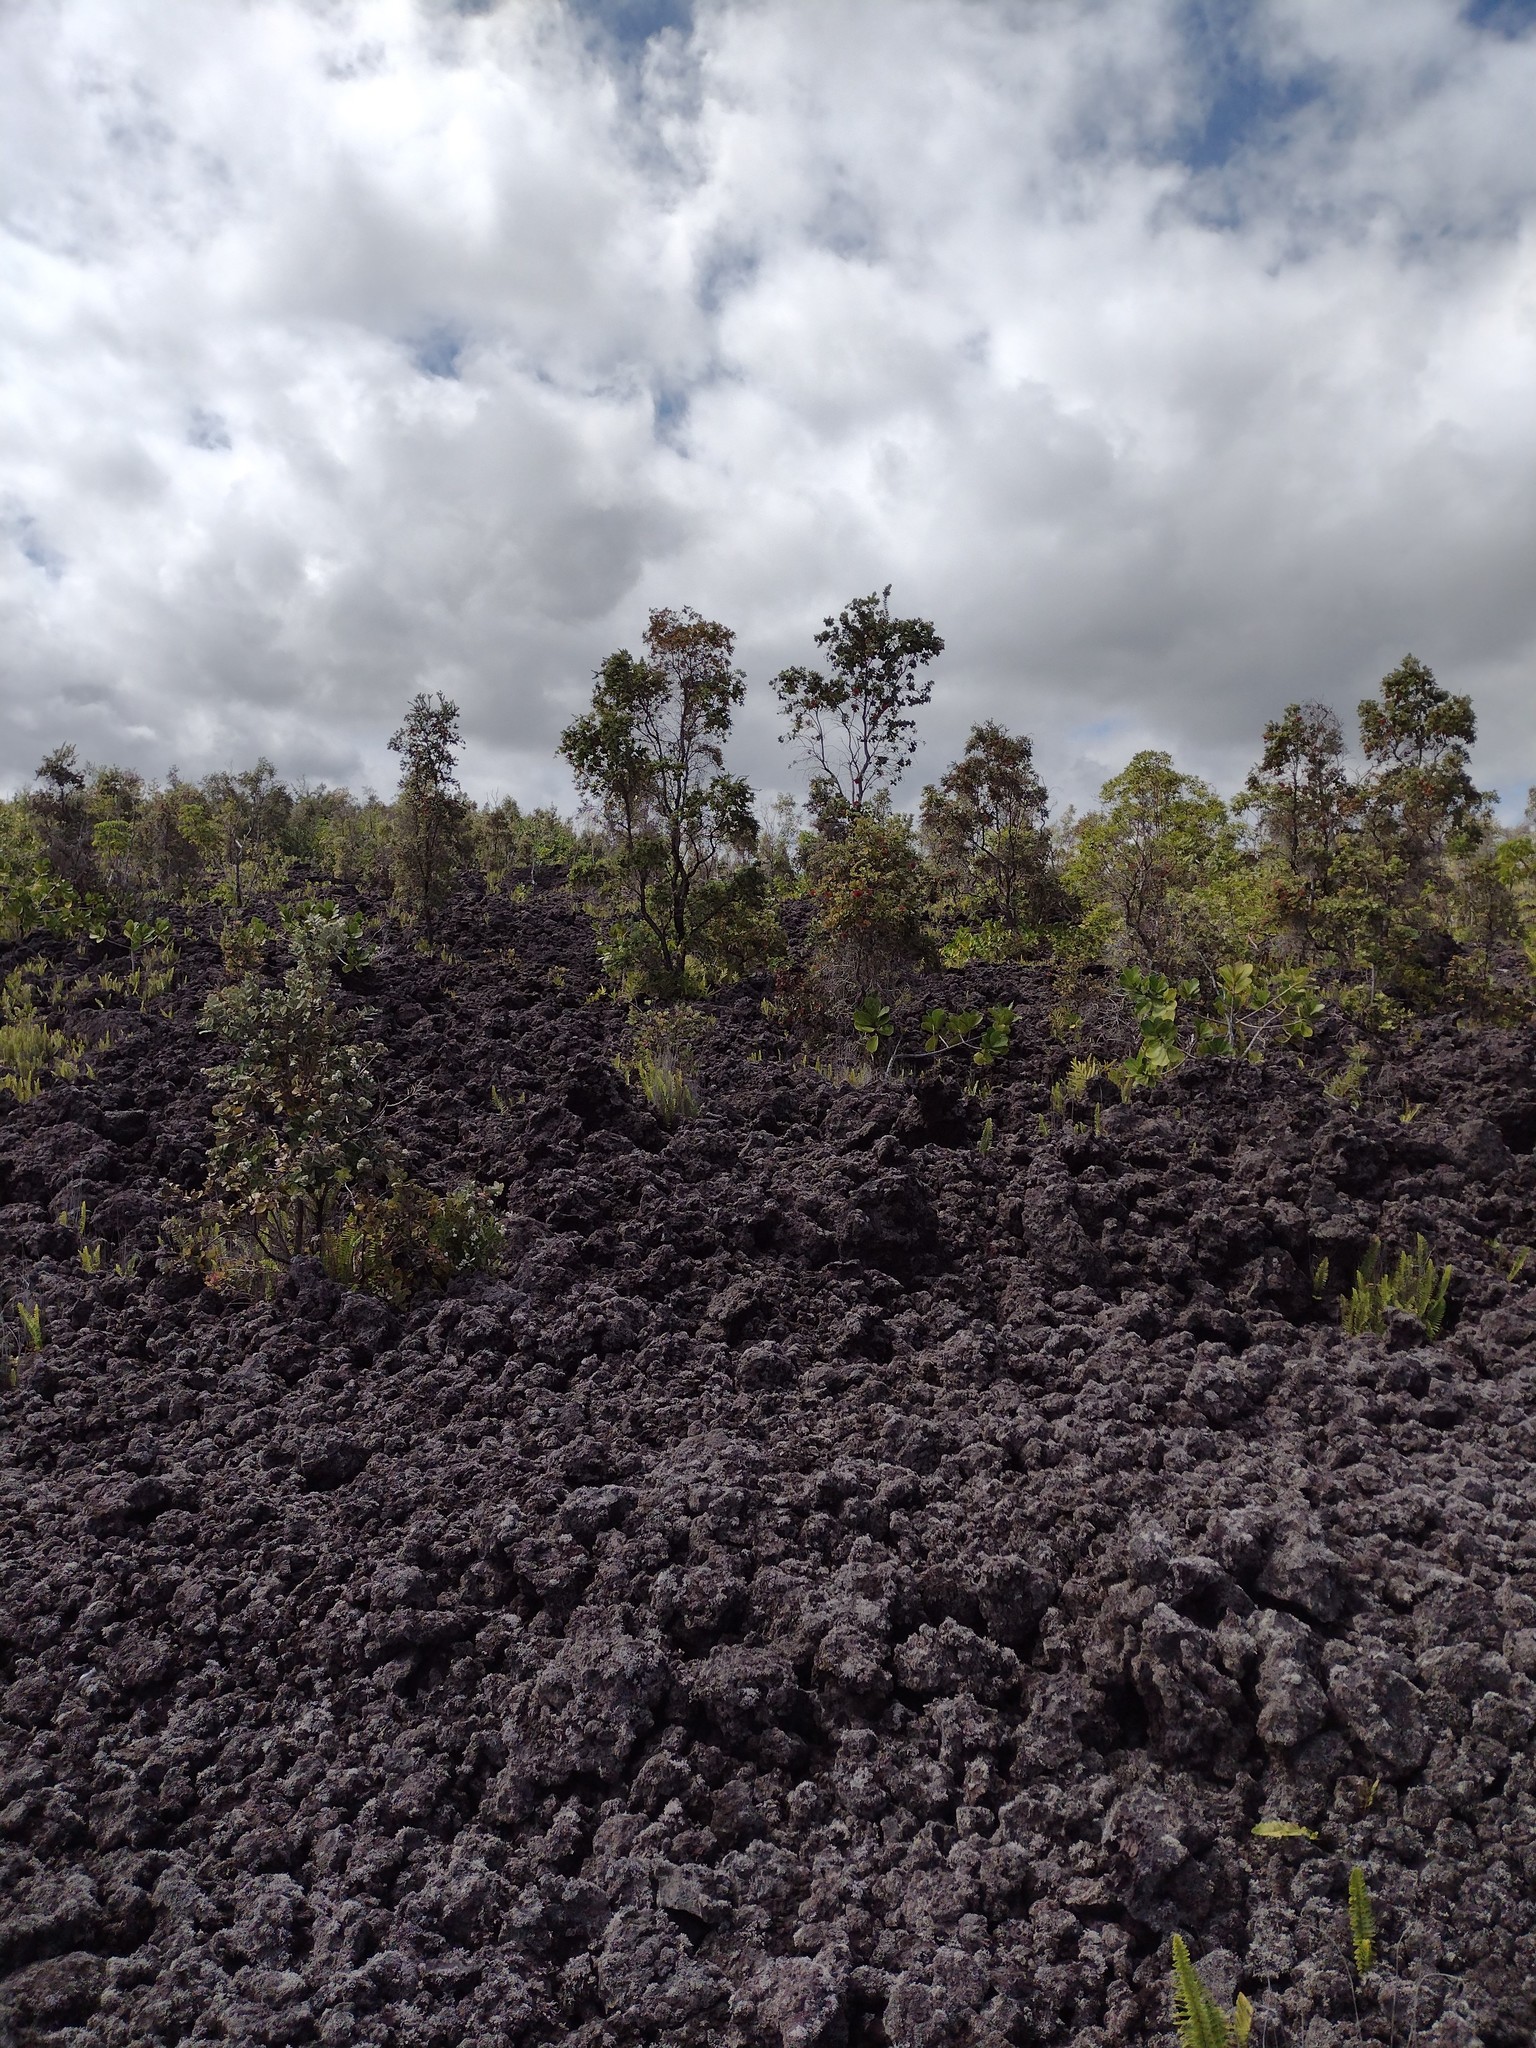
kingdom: Plantae
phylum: Tracheophyta
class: Magnoliopsida
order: Myrtales
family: Myrtaceae
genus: Metrosideros
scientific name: Metrosideros polymorpha
